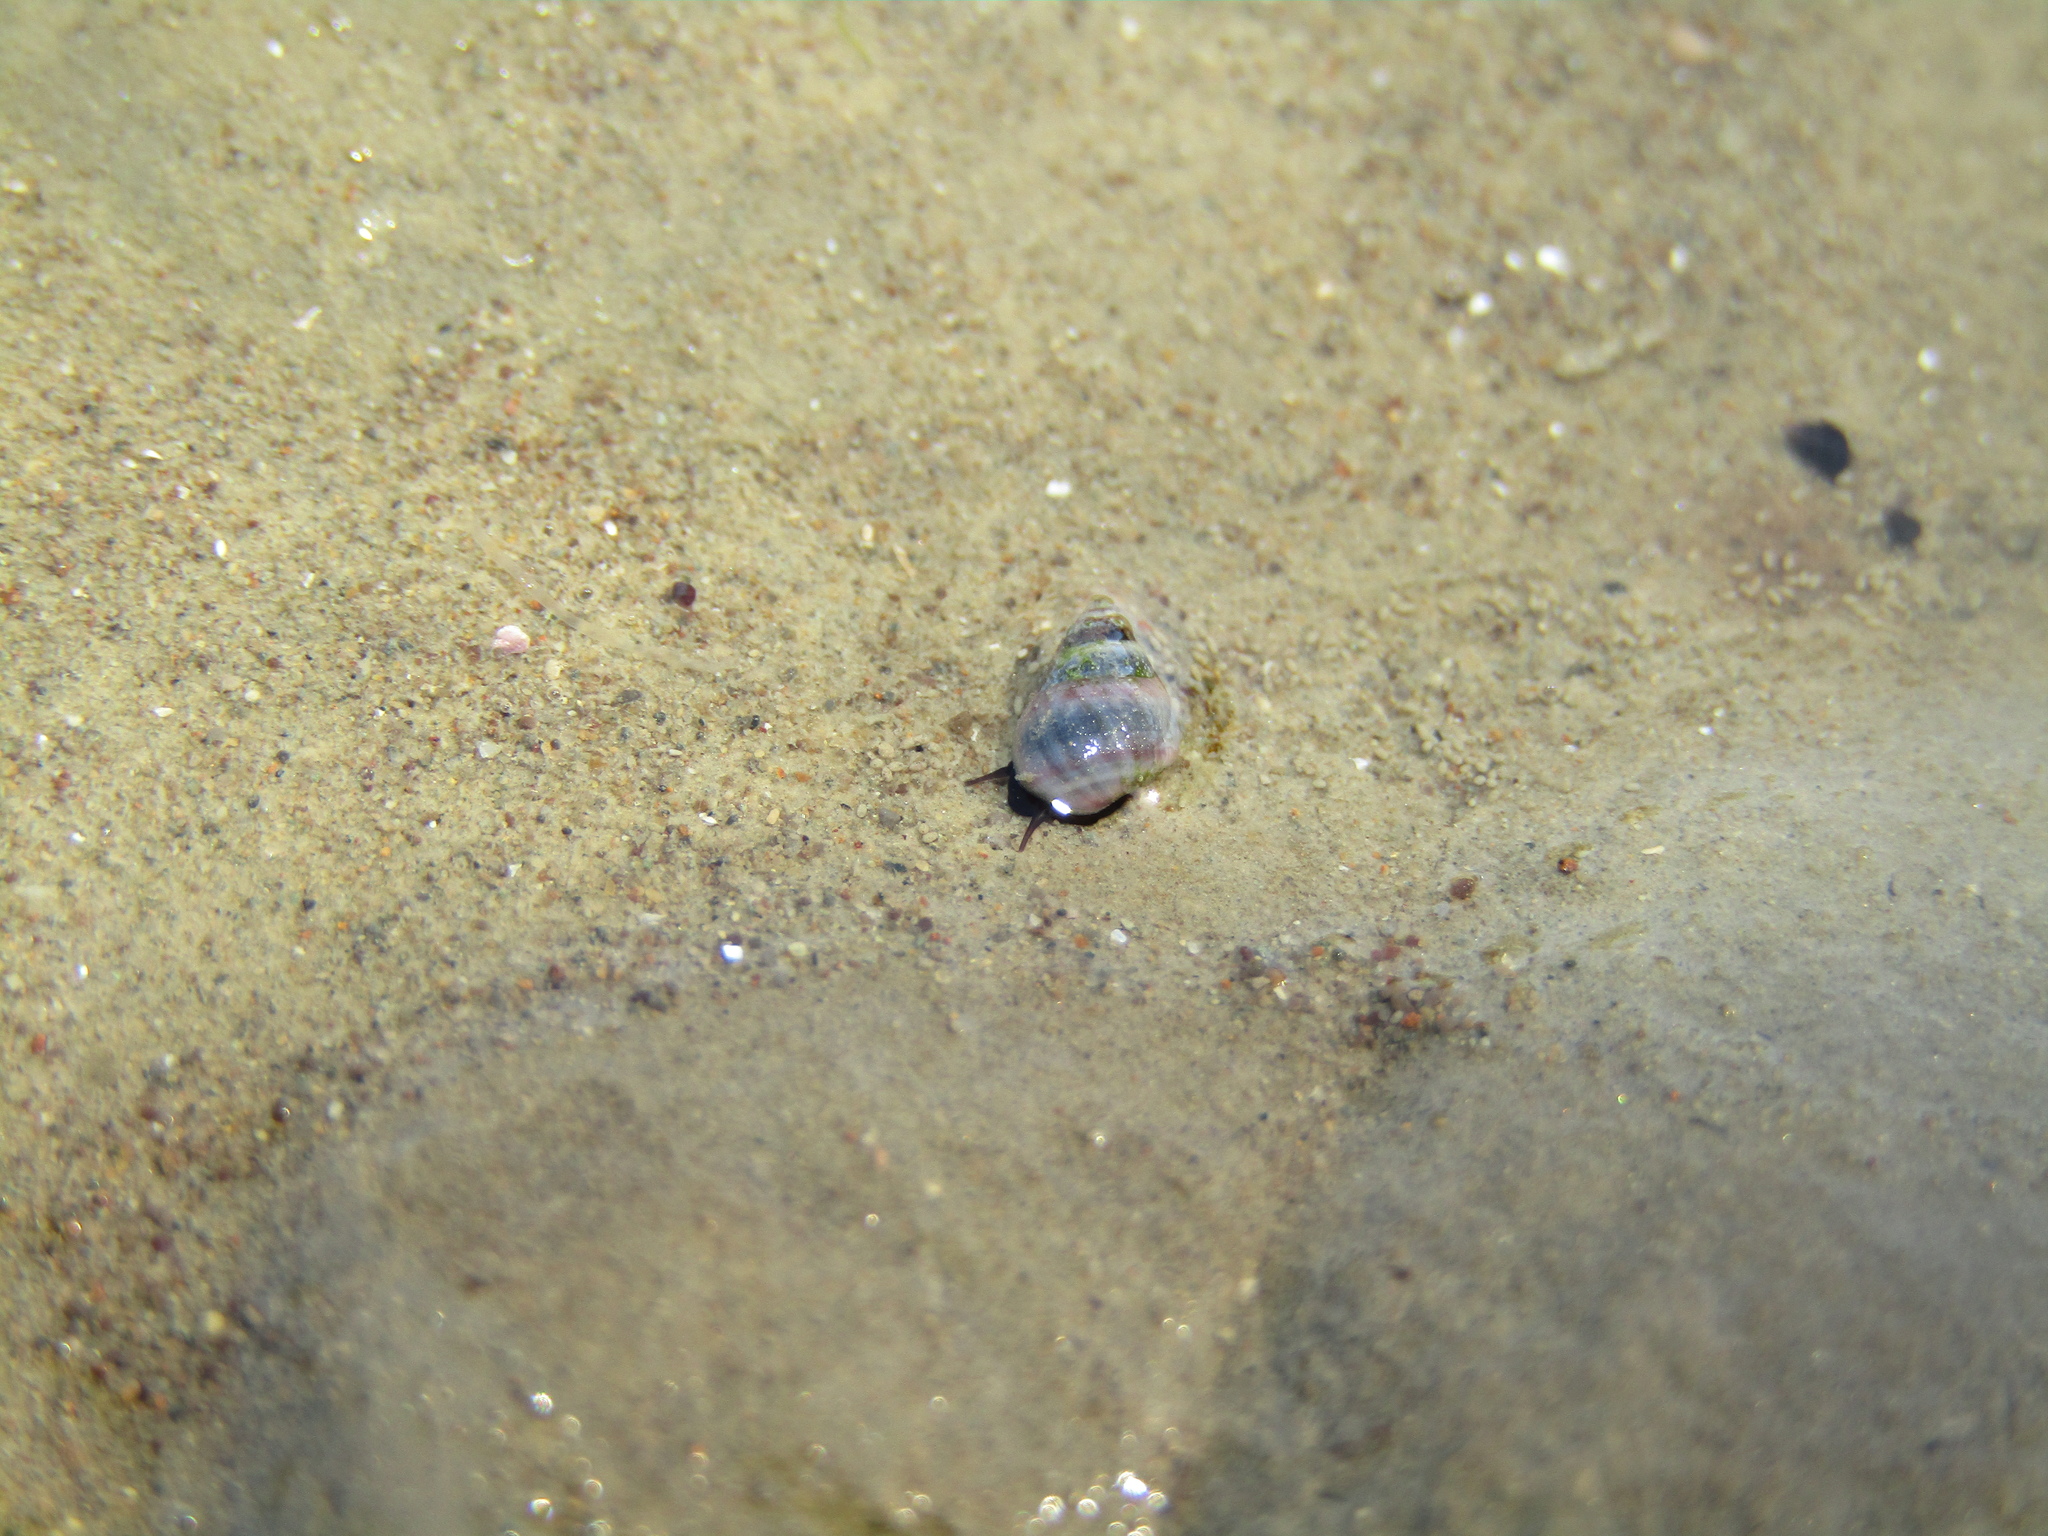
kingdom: Animalia
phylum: Mollusca
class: Gastropoda
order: Littorinimorpha
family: Littorinidae
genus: Austrolittorina
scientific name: Austrolittorina antipodum
